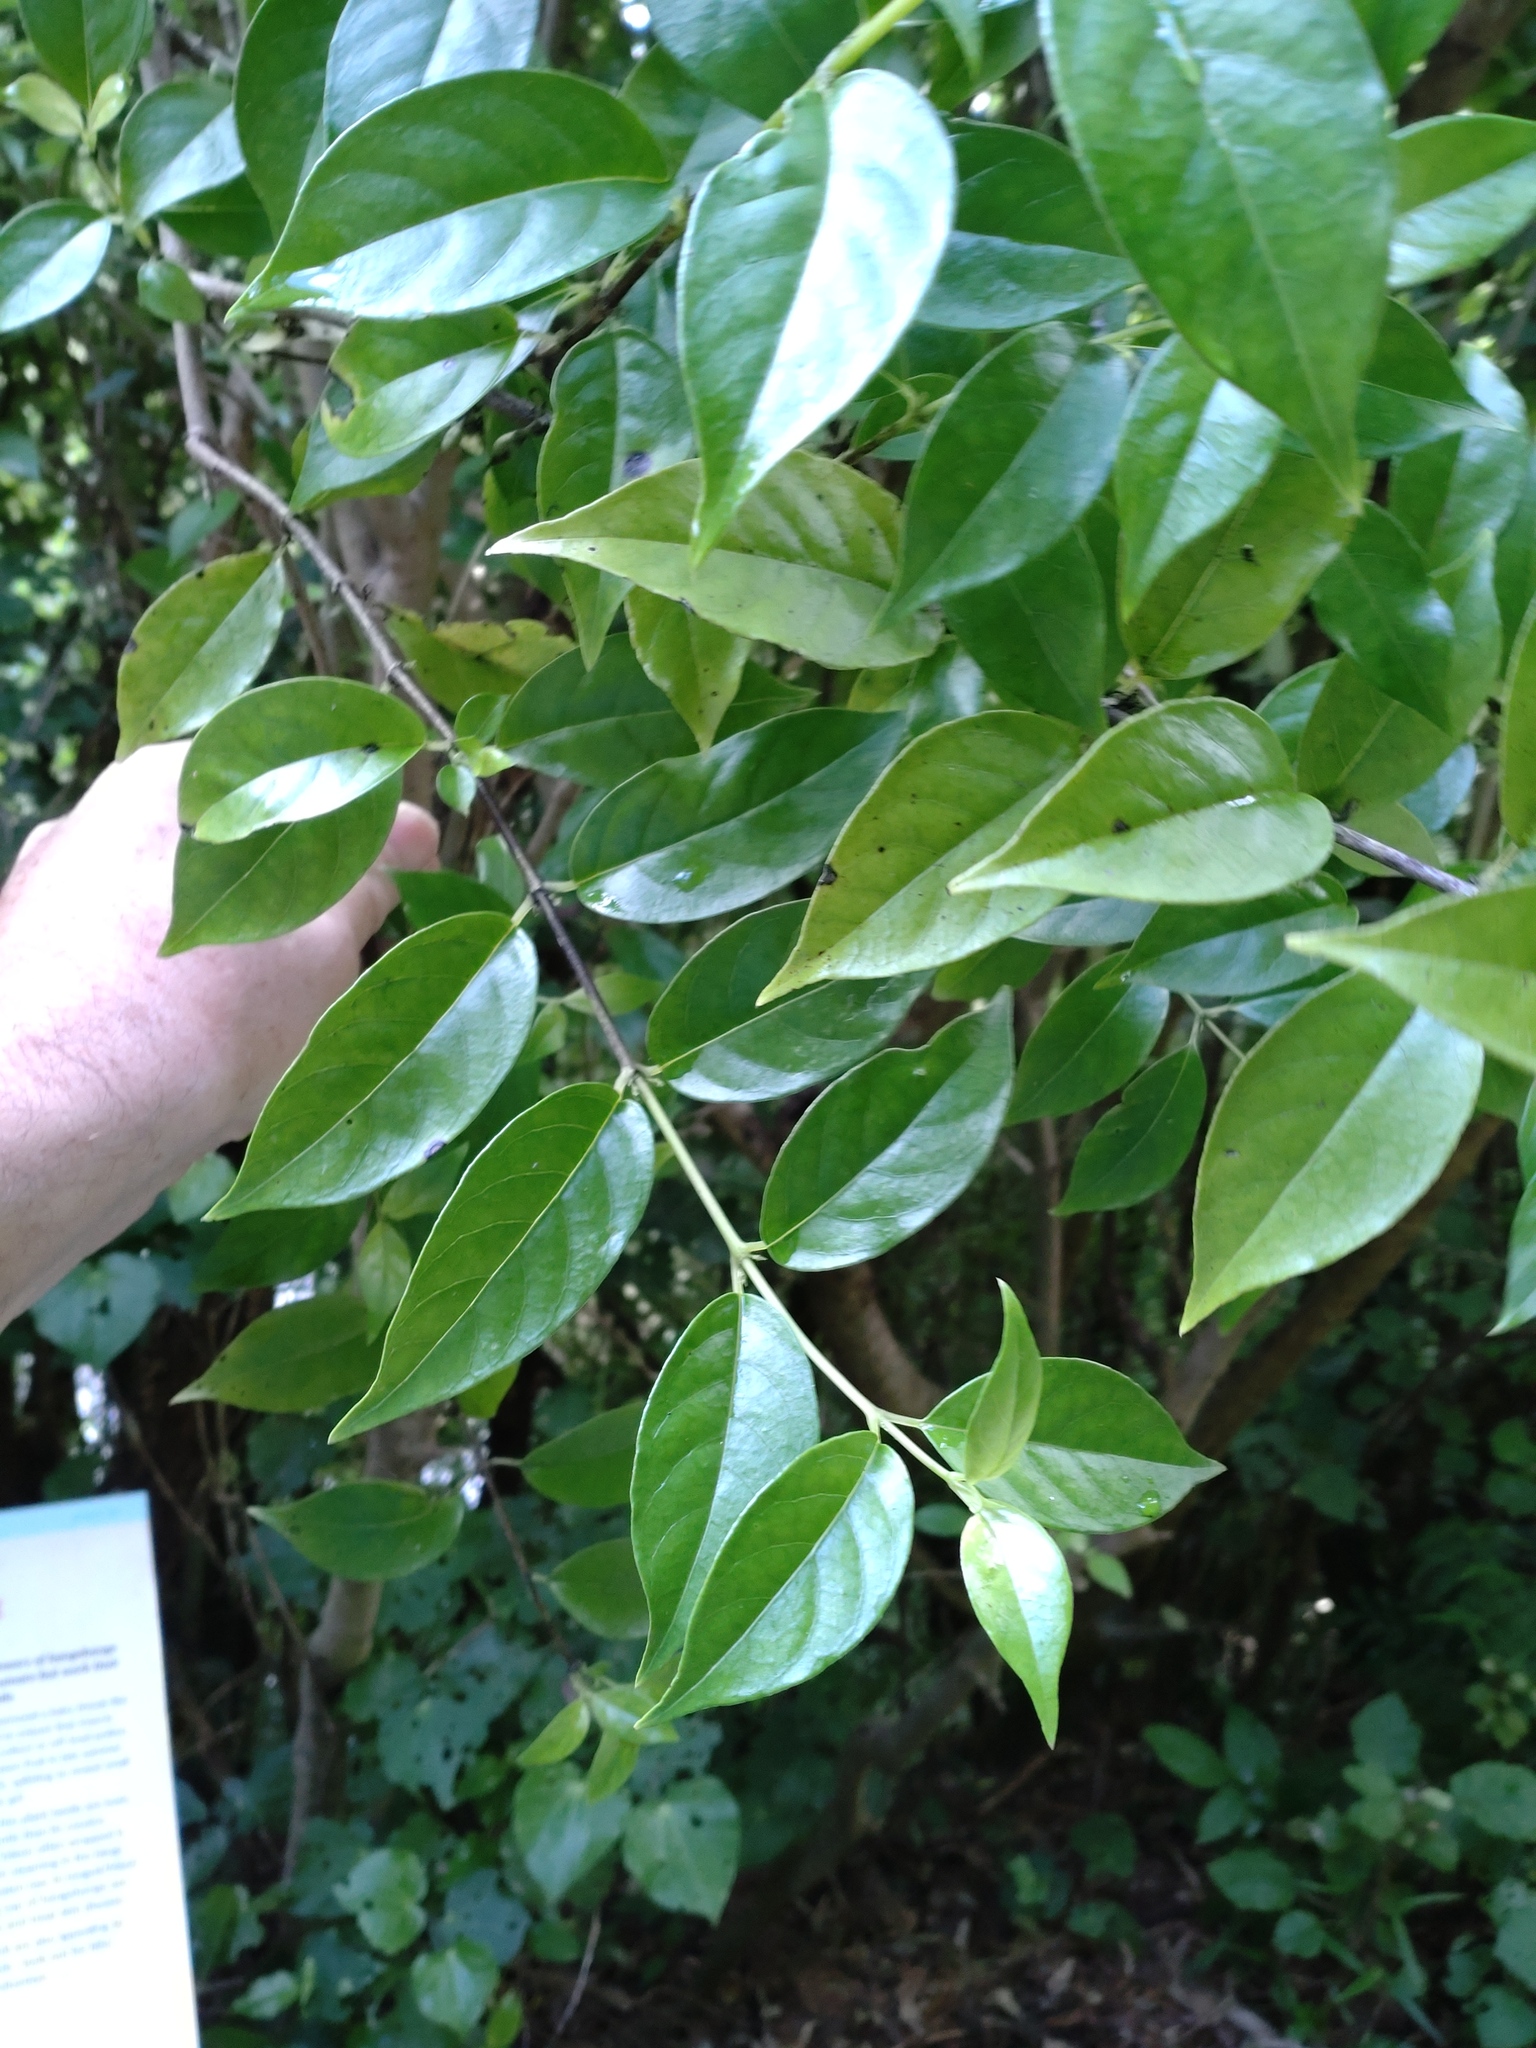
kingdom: Plantae
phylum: Tracheophyta
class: Magnoliopsida
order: Gentianales
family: Loganiaceae
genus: Geniostoma
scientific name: Geniostoma ligustrifolium
